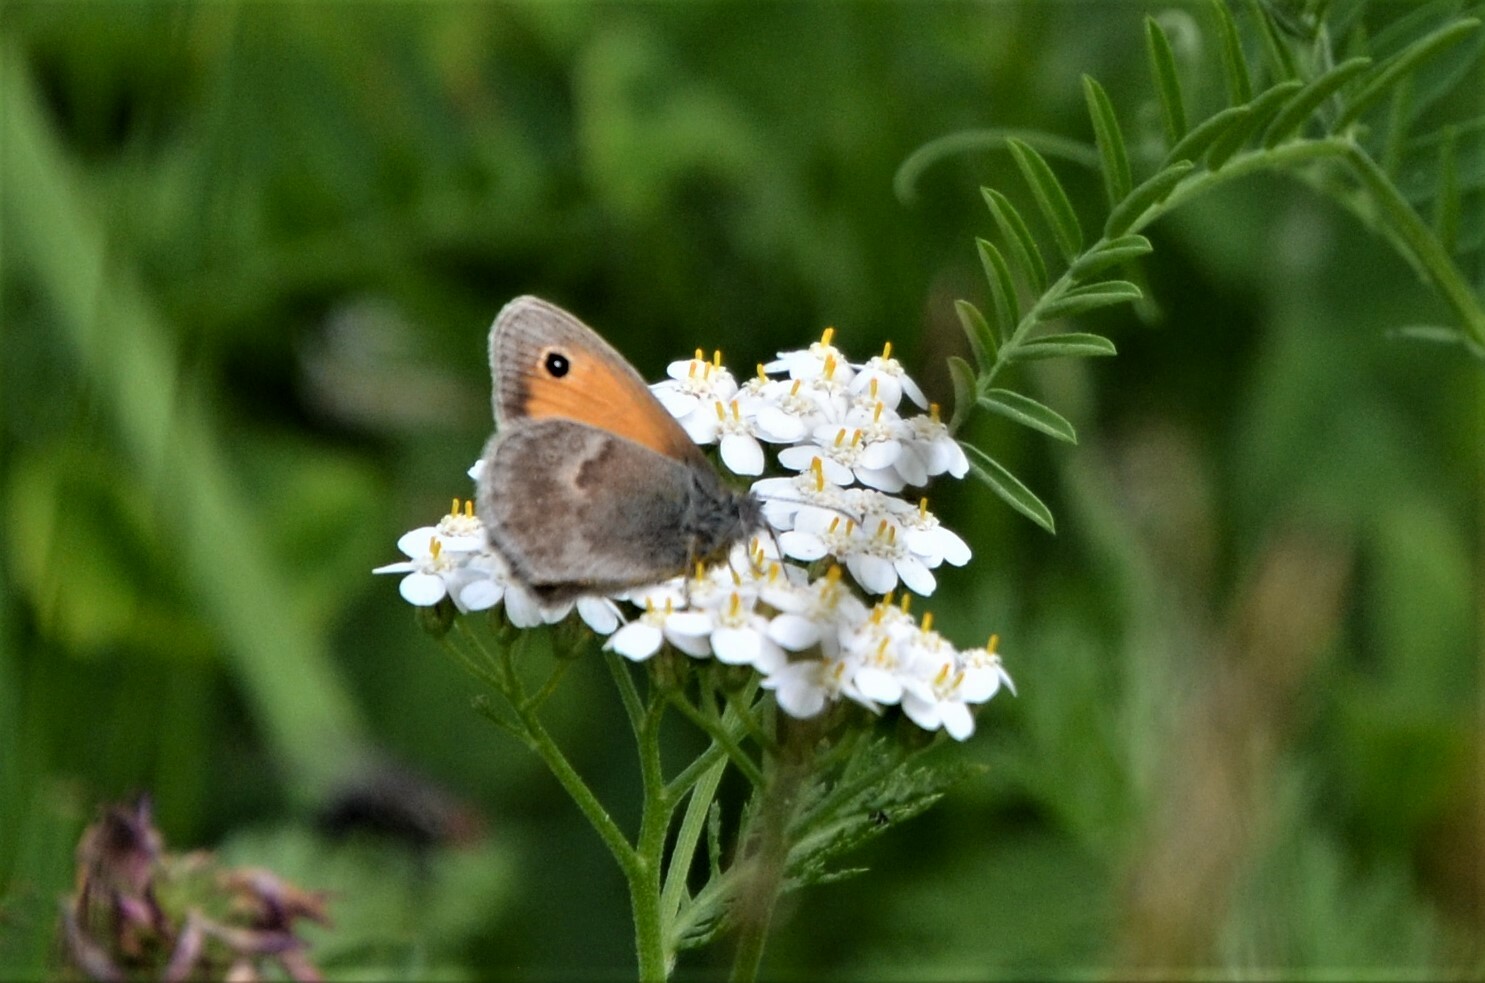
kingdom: Animalia
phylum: Arthropoda
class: Insecta
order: Lepidoptera
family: Nymphalidae
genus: Coenonympha
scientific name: Coenonympha pamphilus
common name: Small heath
